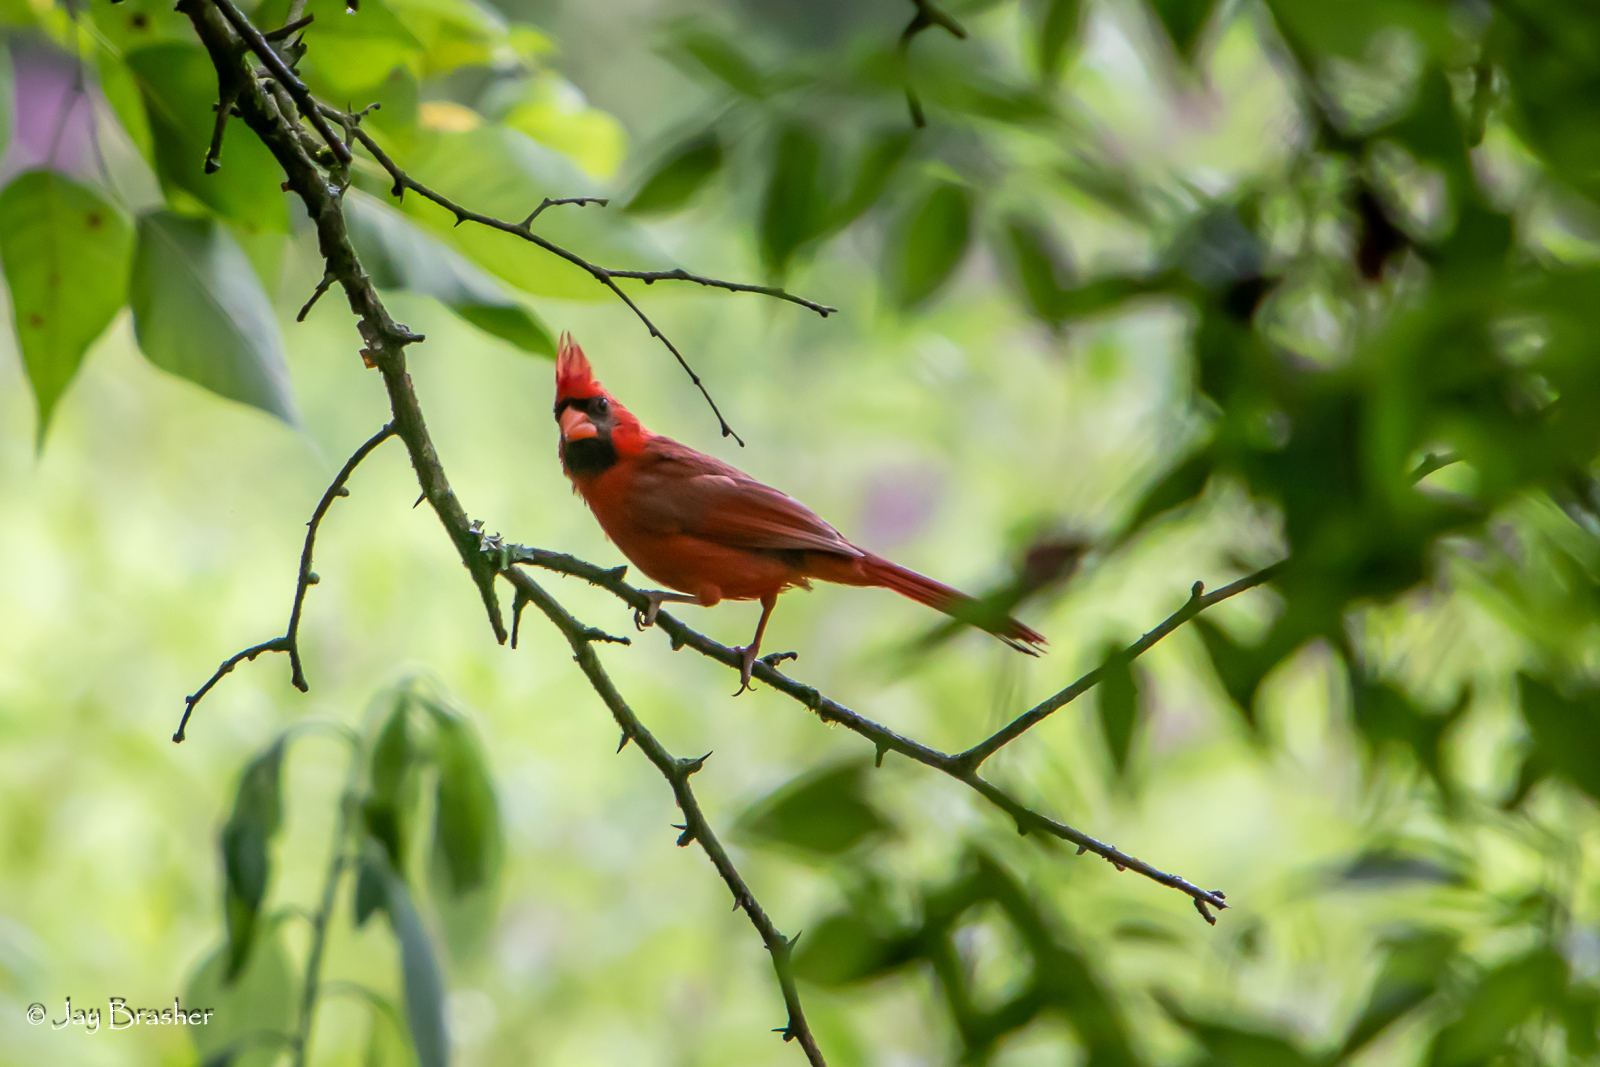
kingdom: Animalia
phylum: Chordata
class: Aves
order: Passeriformes
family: Cardinalidae
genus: Cardinalis
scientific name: Cardinalis cardinalis
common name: Northern cardinal
